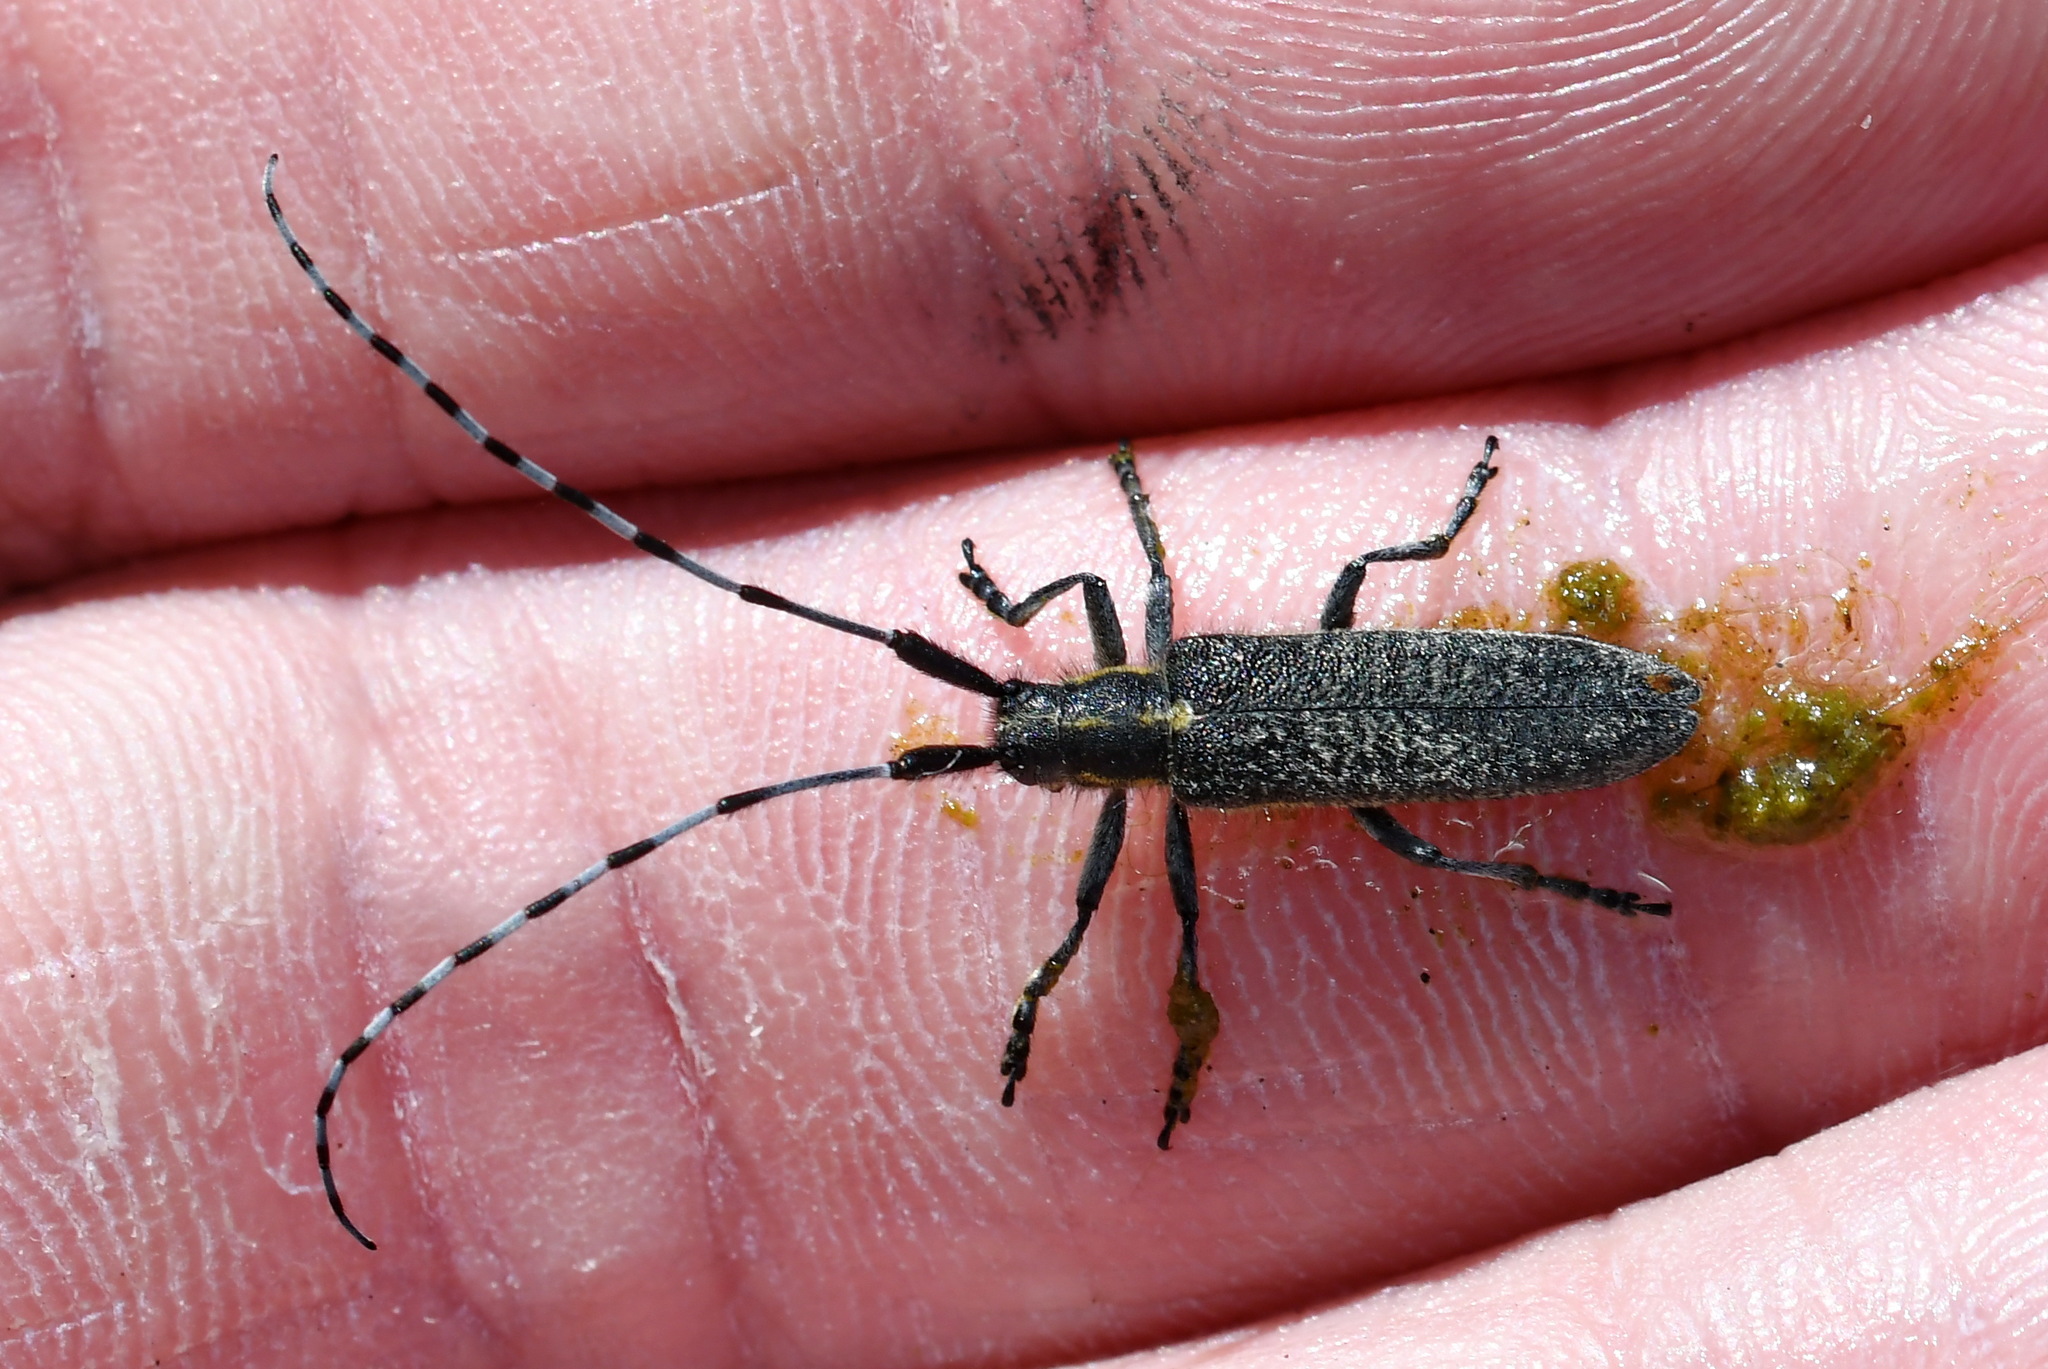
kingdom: Animalia
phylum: Arthropoda
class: Insecta
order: Coleoptera
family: Cerambycidae
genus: Agapanthia
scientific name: Agapanthia villosoviridescens
